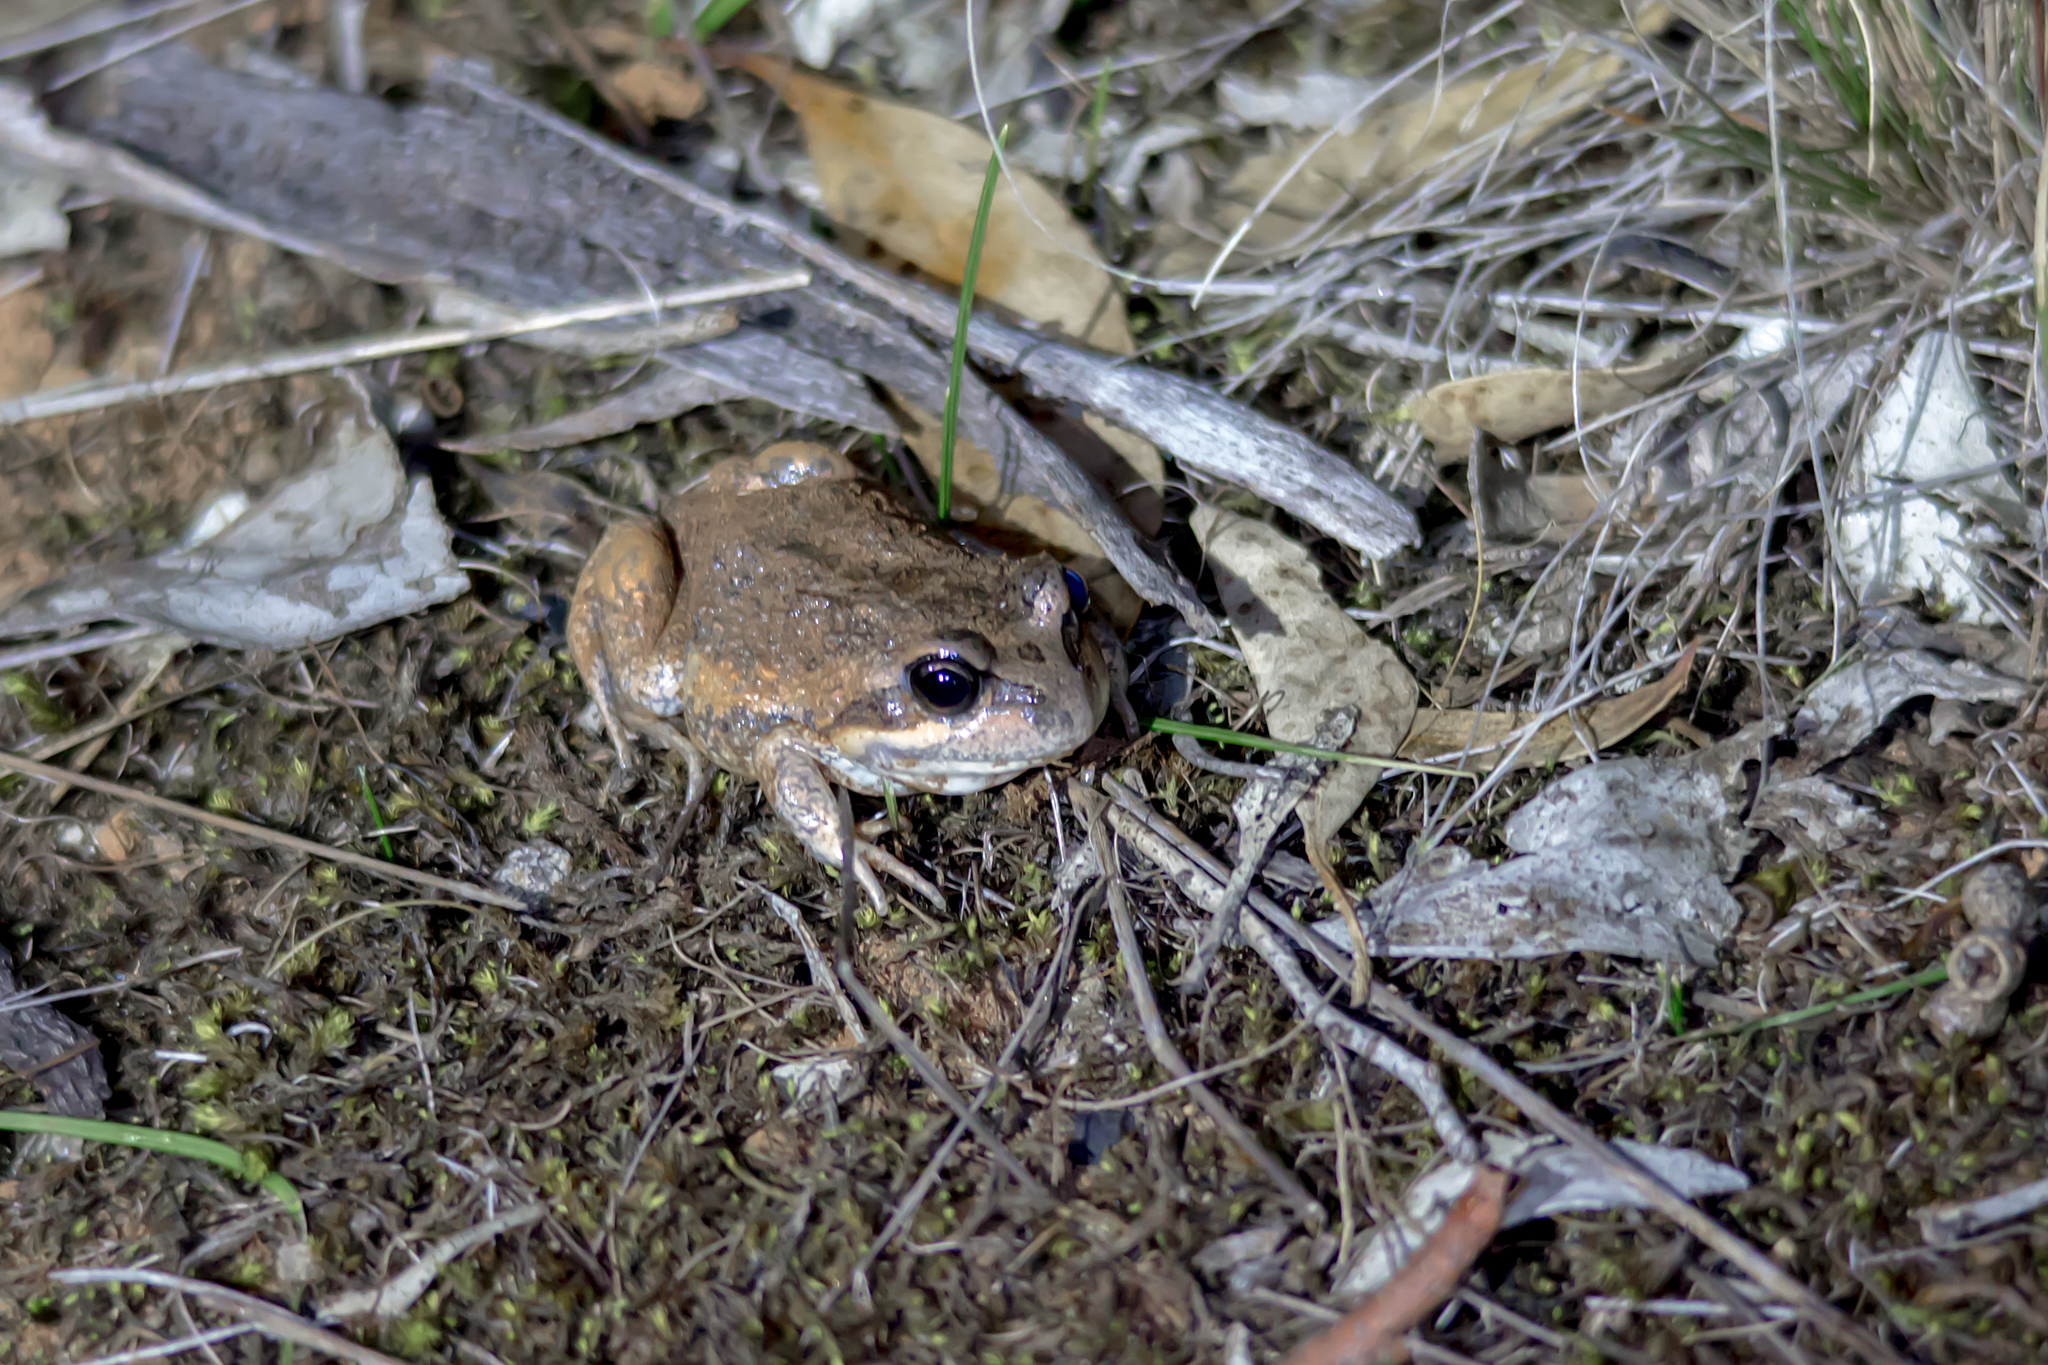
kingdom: Animalia
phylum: Chordata
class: Amphibia
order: Anura
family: Limnodynastidae
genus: Limnodynastes
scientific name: Limnodynastes dumerilii
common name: Banjo frog
